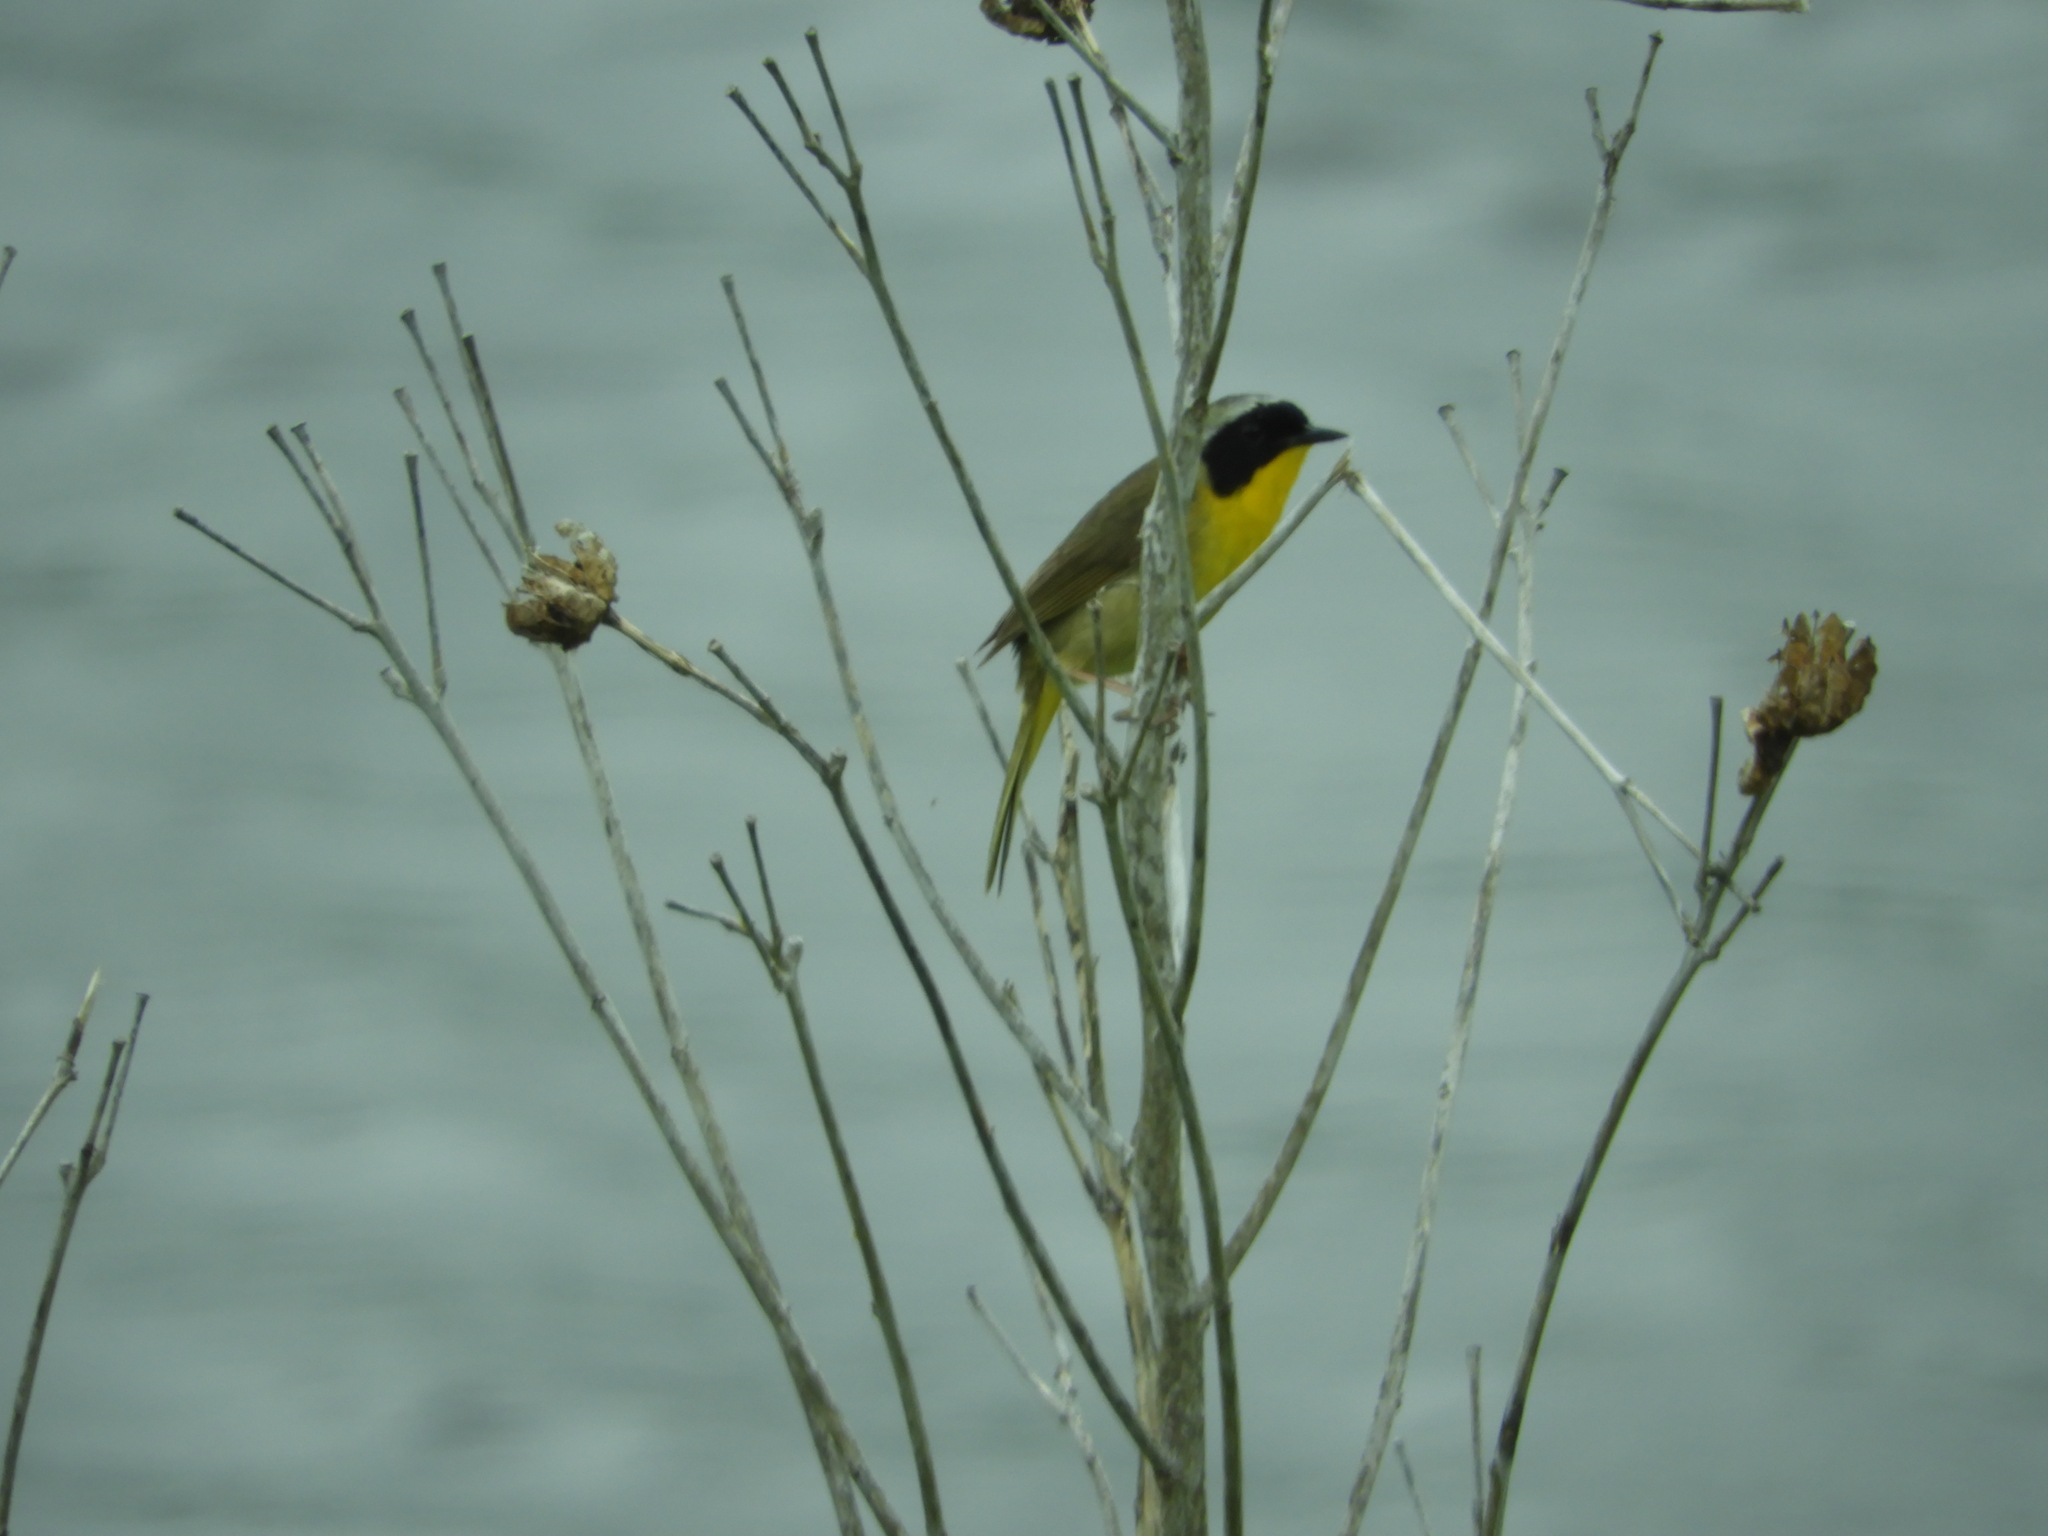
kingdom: Animalia
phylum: Chordata
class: Aves
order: Passeriformes
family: Parulidae
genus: Geothlypis
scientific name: Geothlypis trichas
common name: Common yellowthroat
